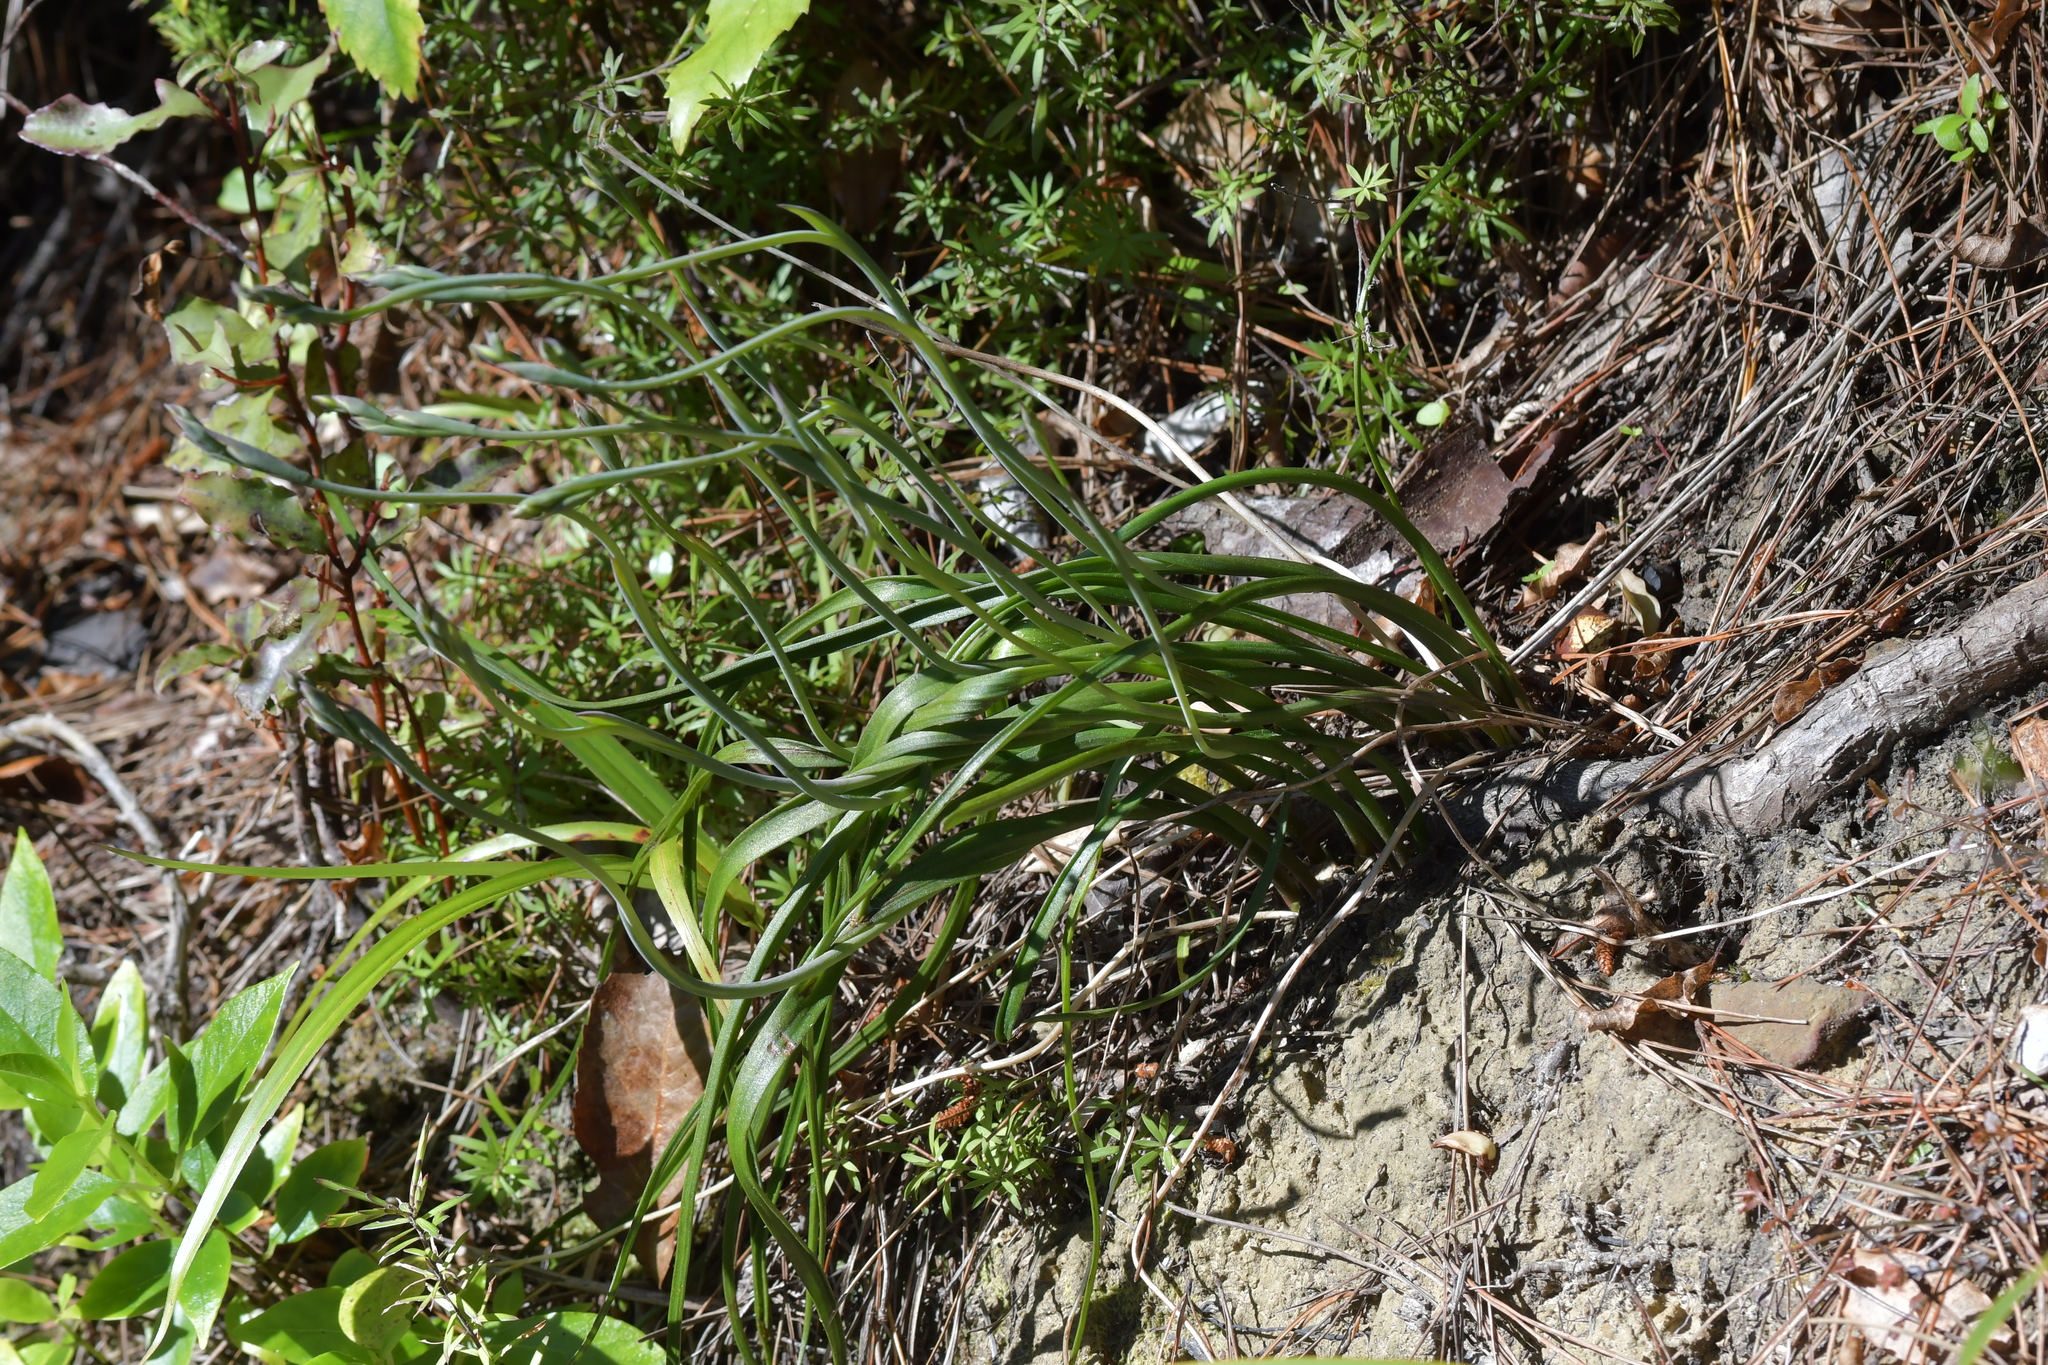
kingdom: Plantae
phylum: Tracheophyta
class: Liliopsida
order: Asparagales
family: Orchidaceae
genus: Thelymitra
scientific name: Thelymitra nervosa
